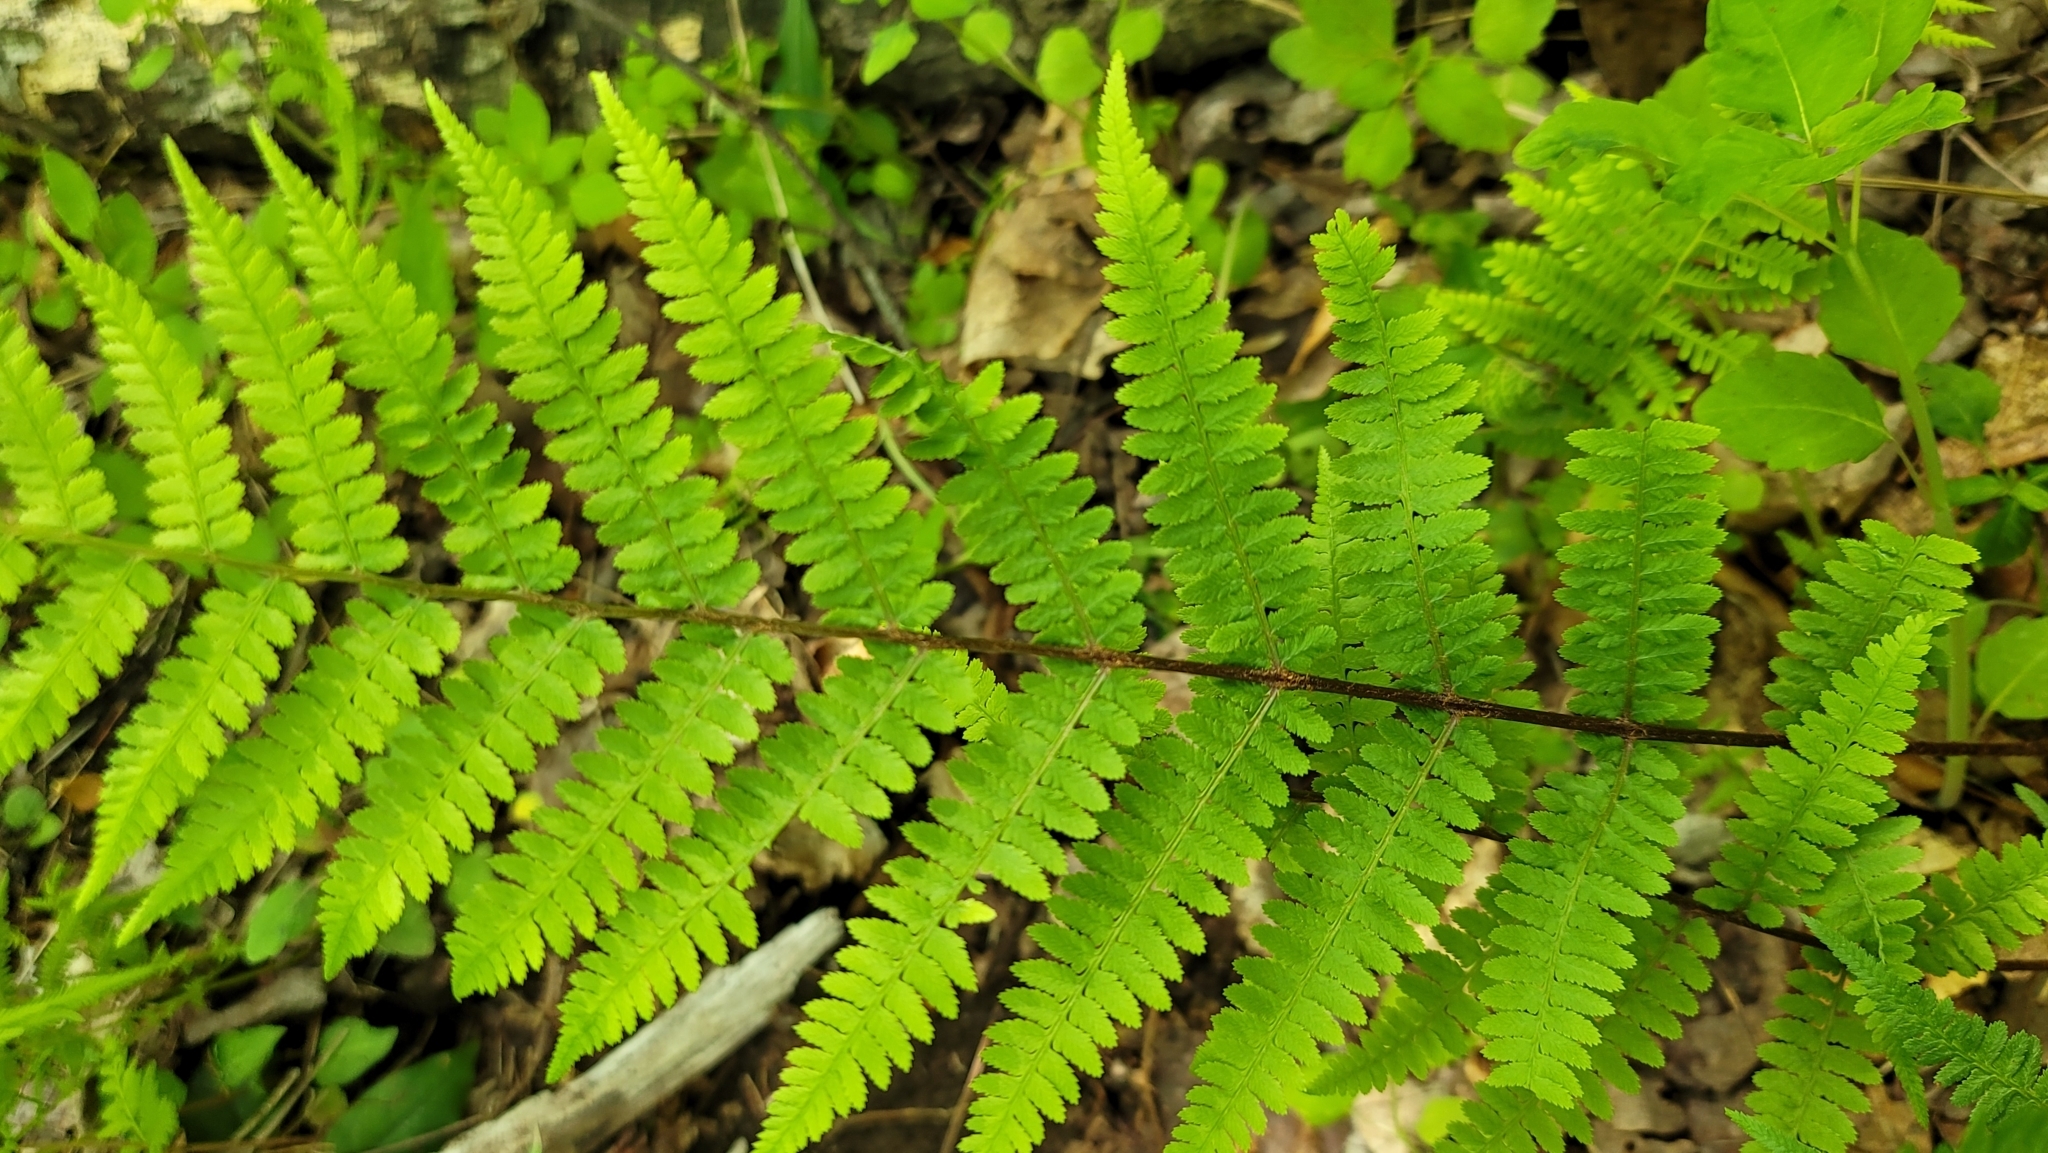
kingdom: Plantae
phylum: Tracheophyta
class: Polypodiopsida
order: Polypodiales
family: Athyriaceae
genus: Athyrium
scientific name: Athyrium asplenioides
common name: Southern lady fern
